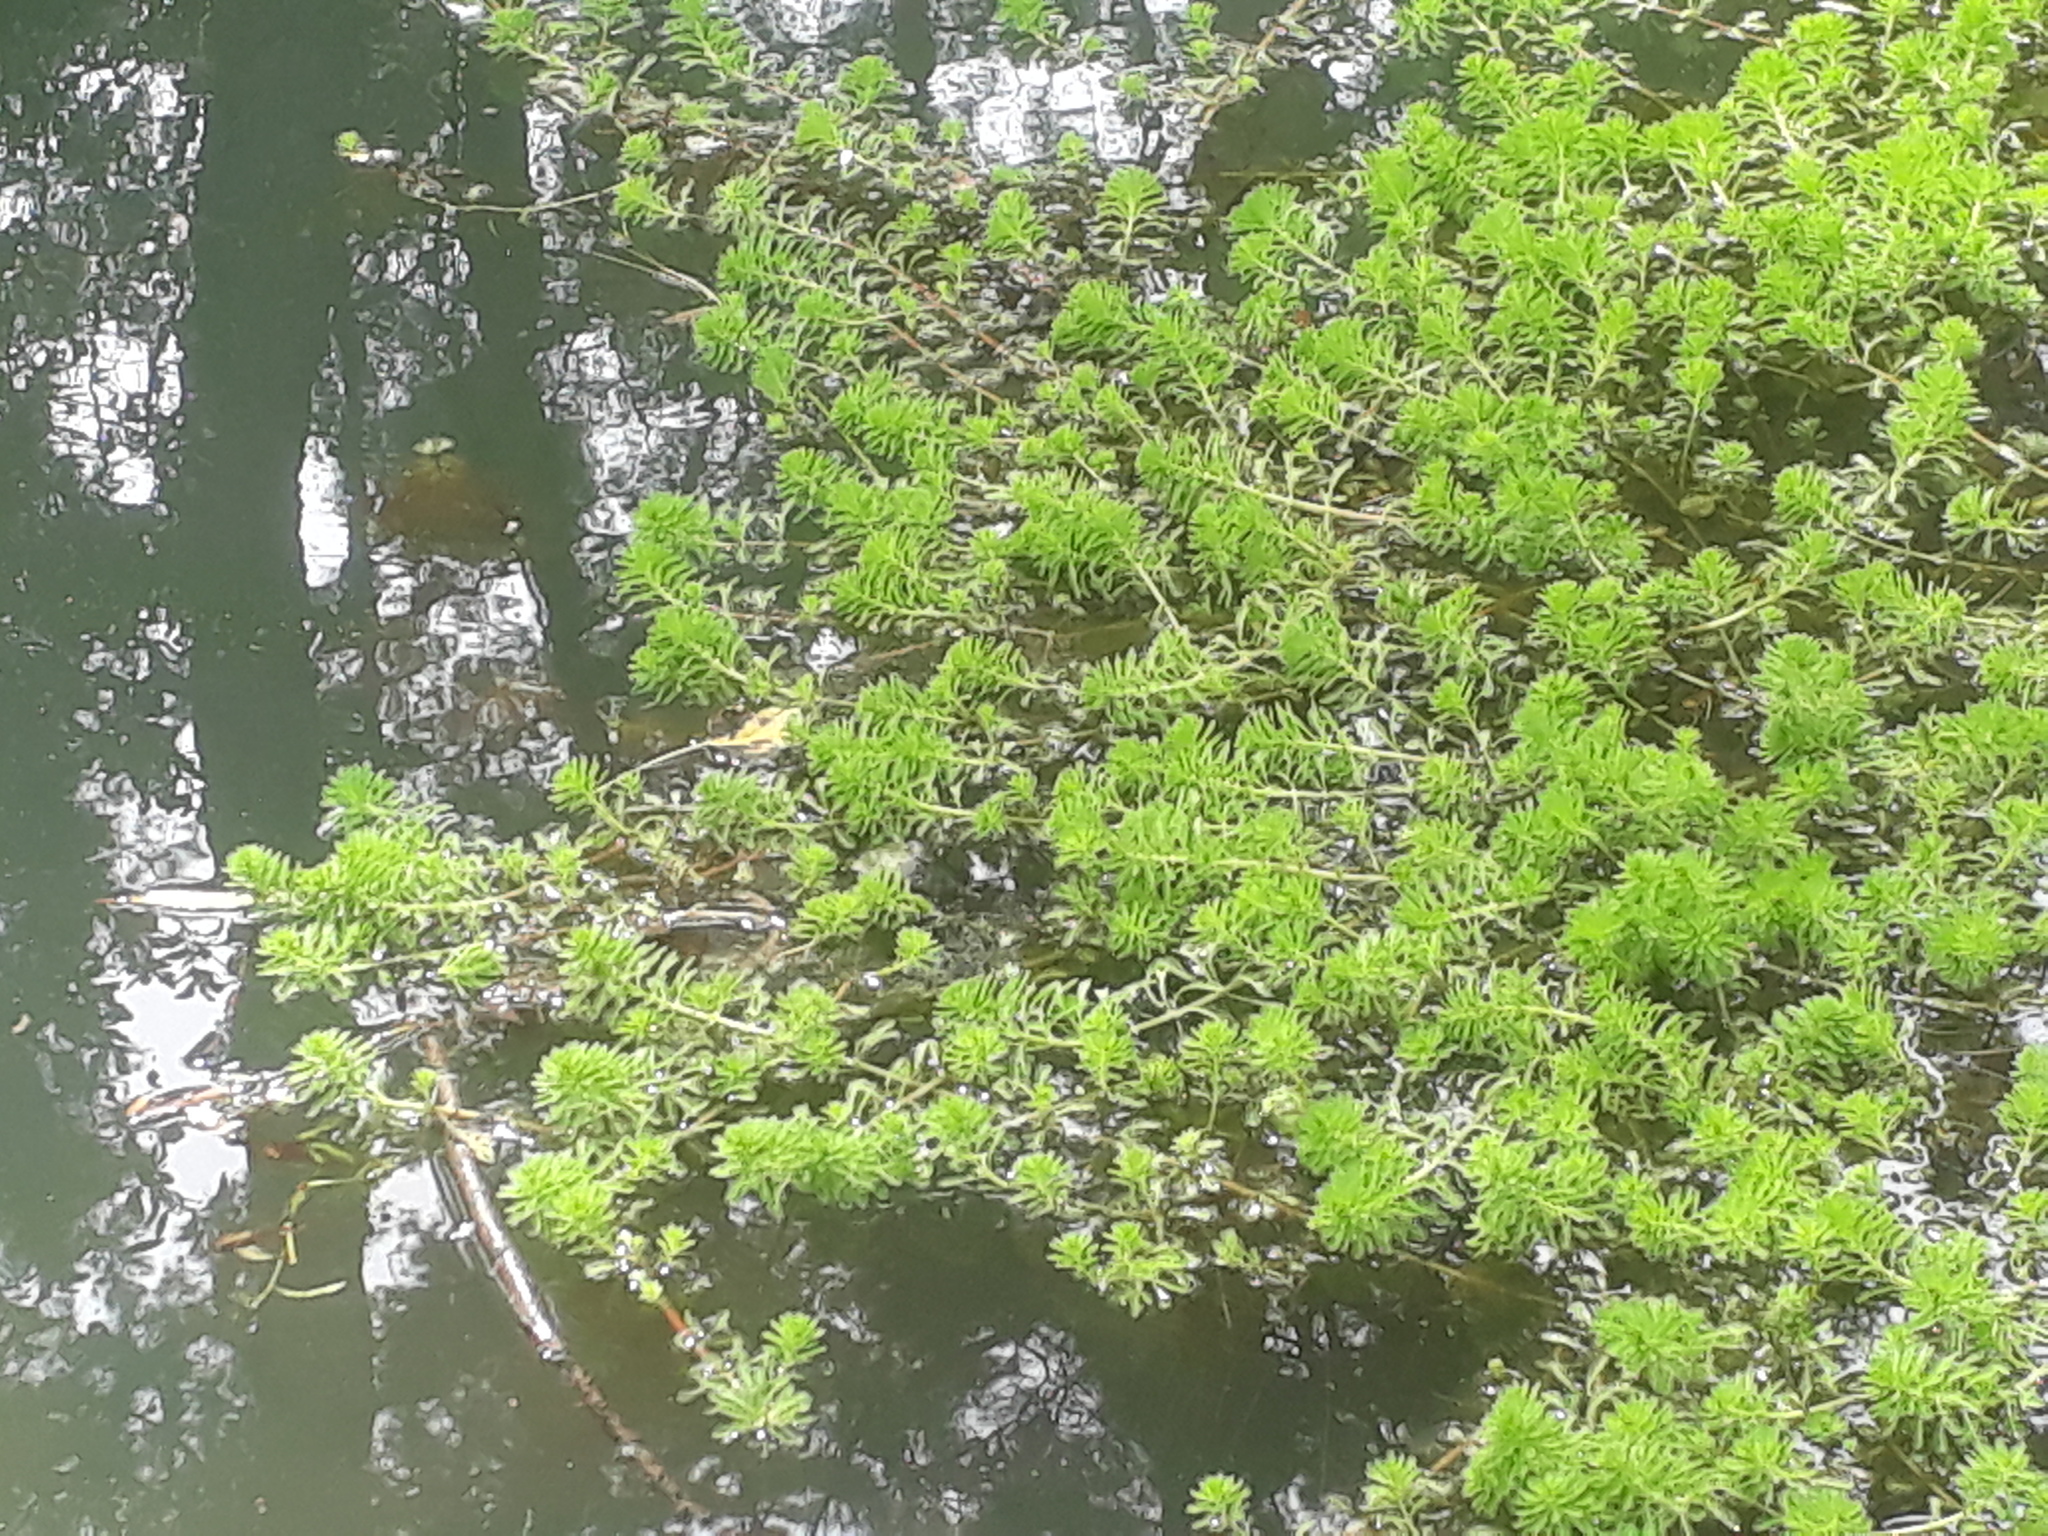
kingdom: Plantae
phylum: Tracheophyta
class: Magnoliopsida
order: Saxifragales
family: Haloragaceae
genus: Myriophyllum
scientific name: Myriophyllum aquaticum
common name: Parrot's feather
